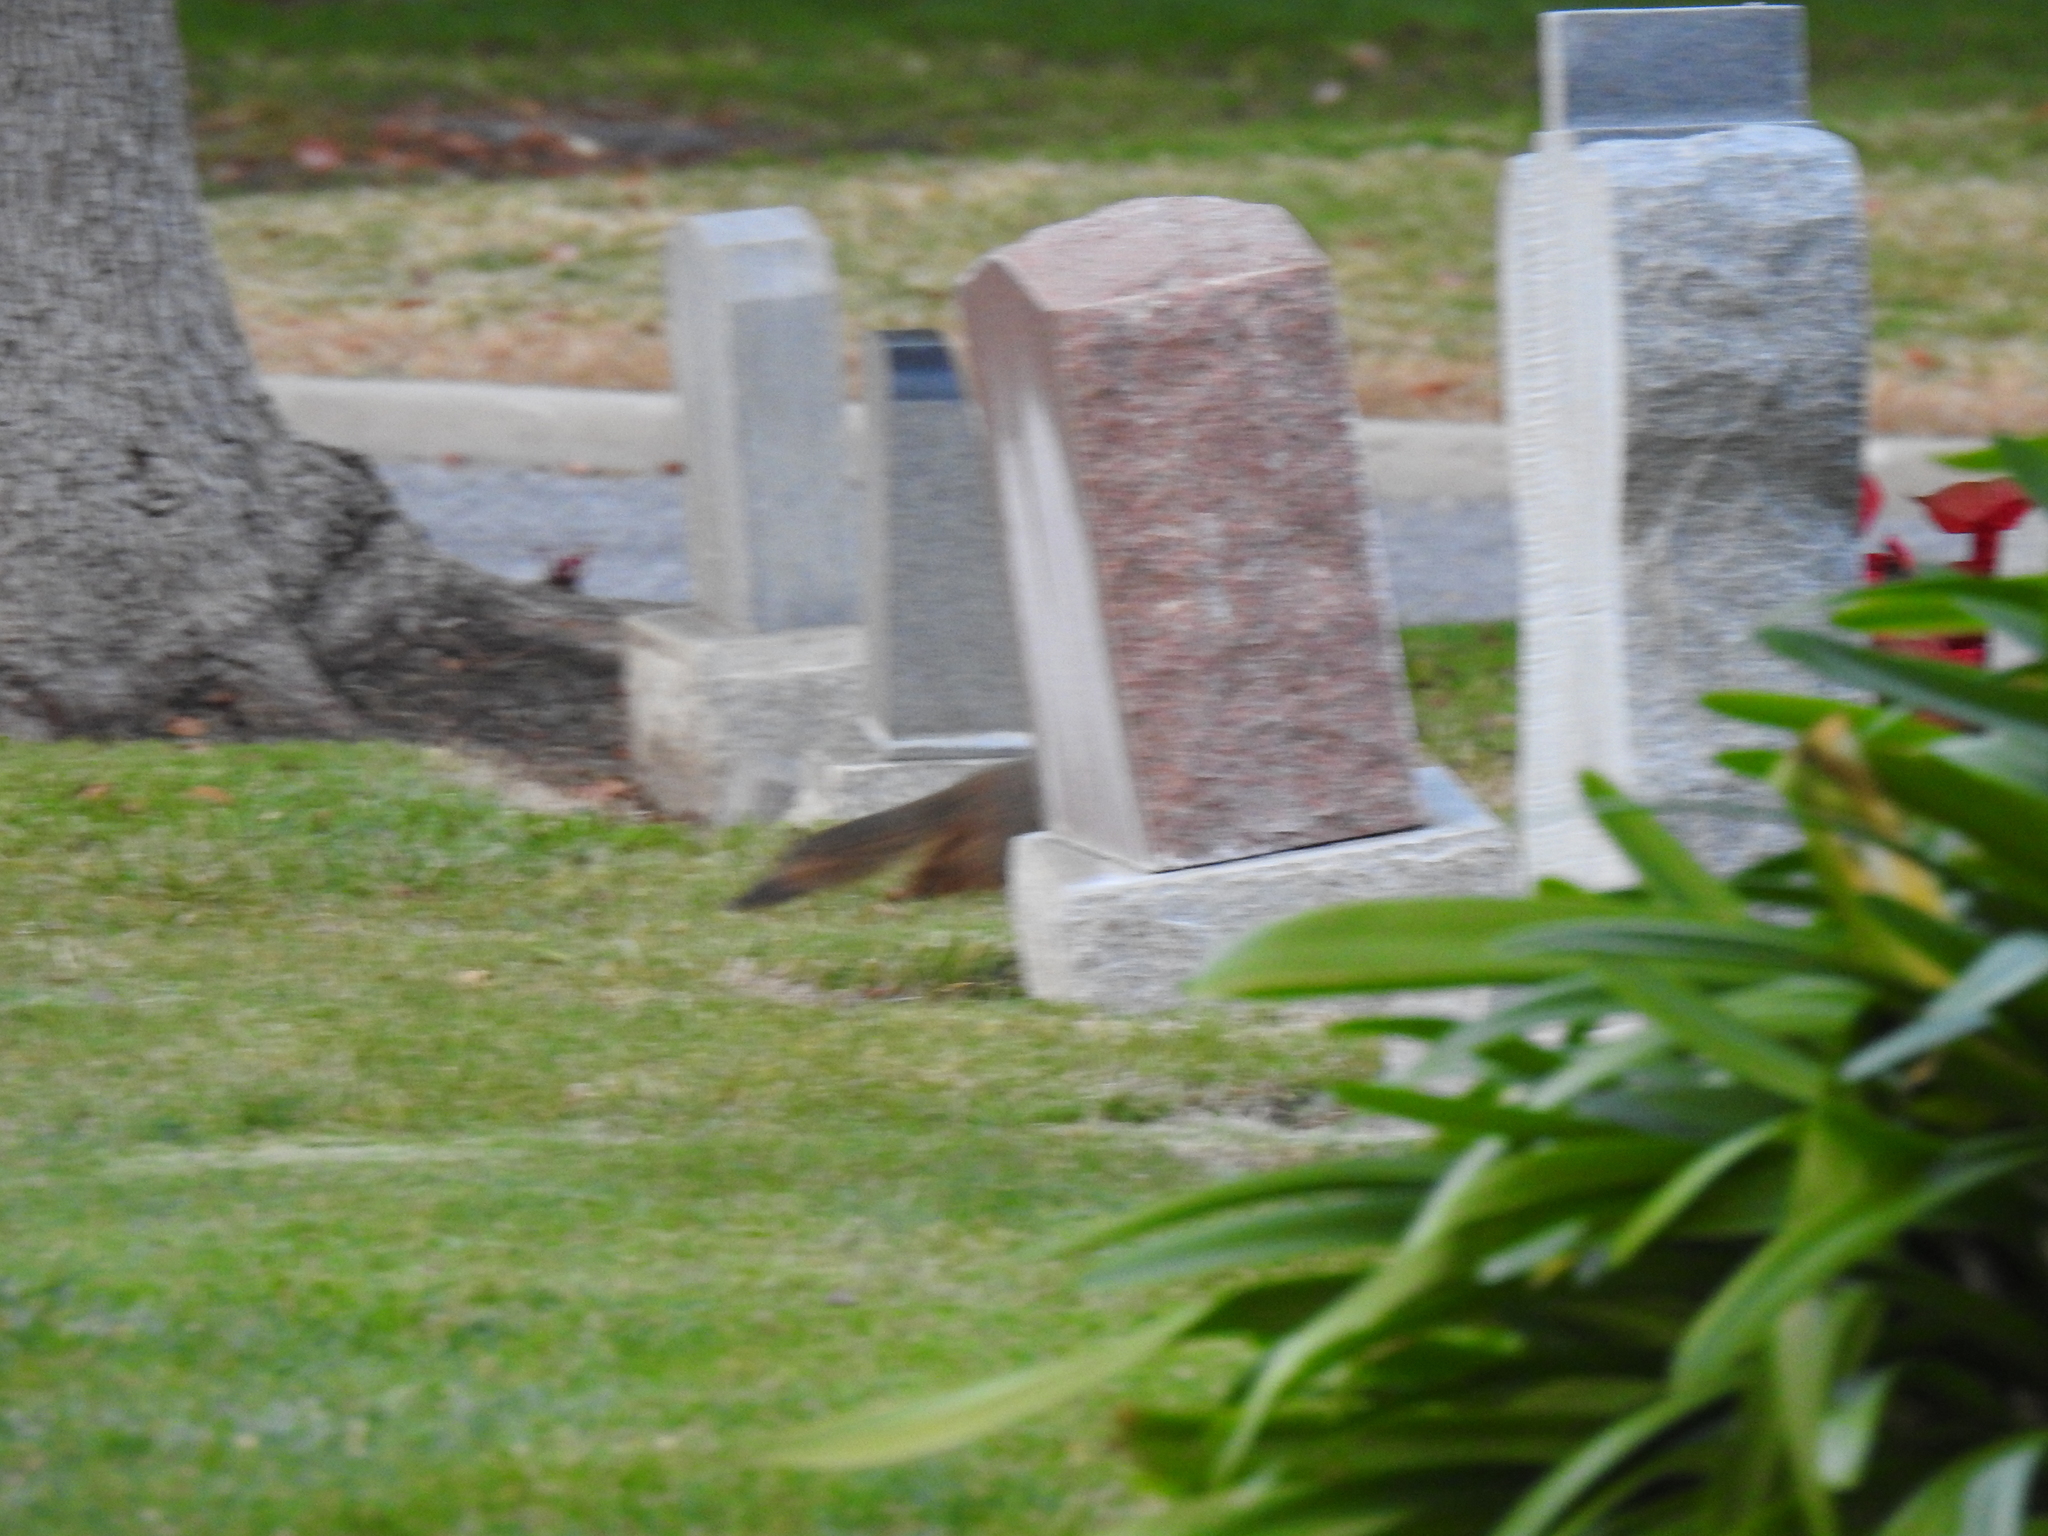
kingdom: Animalia
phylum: Chordata
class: Mammalia
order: Rodentia
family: Sciuridae
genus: Sciurus
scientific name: Sciurus niger
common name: Fox squirrel
